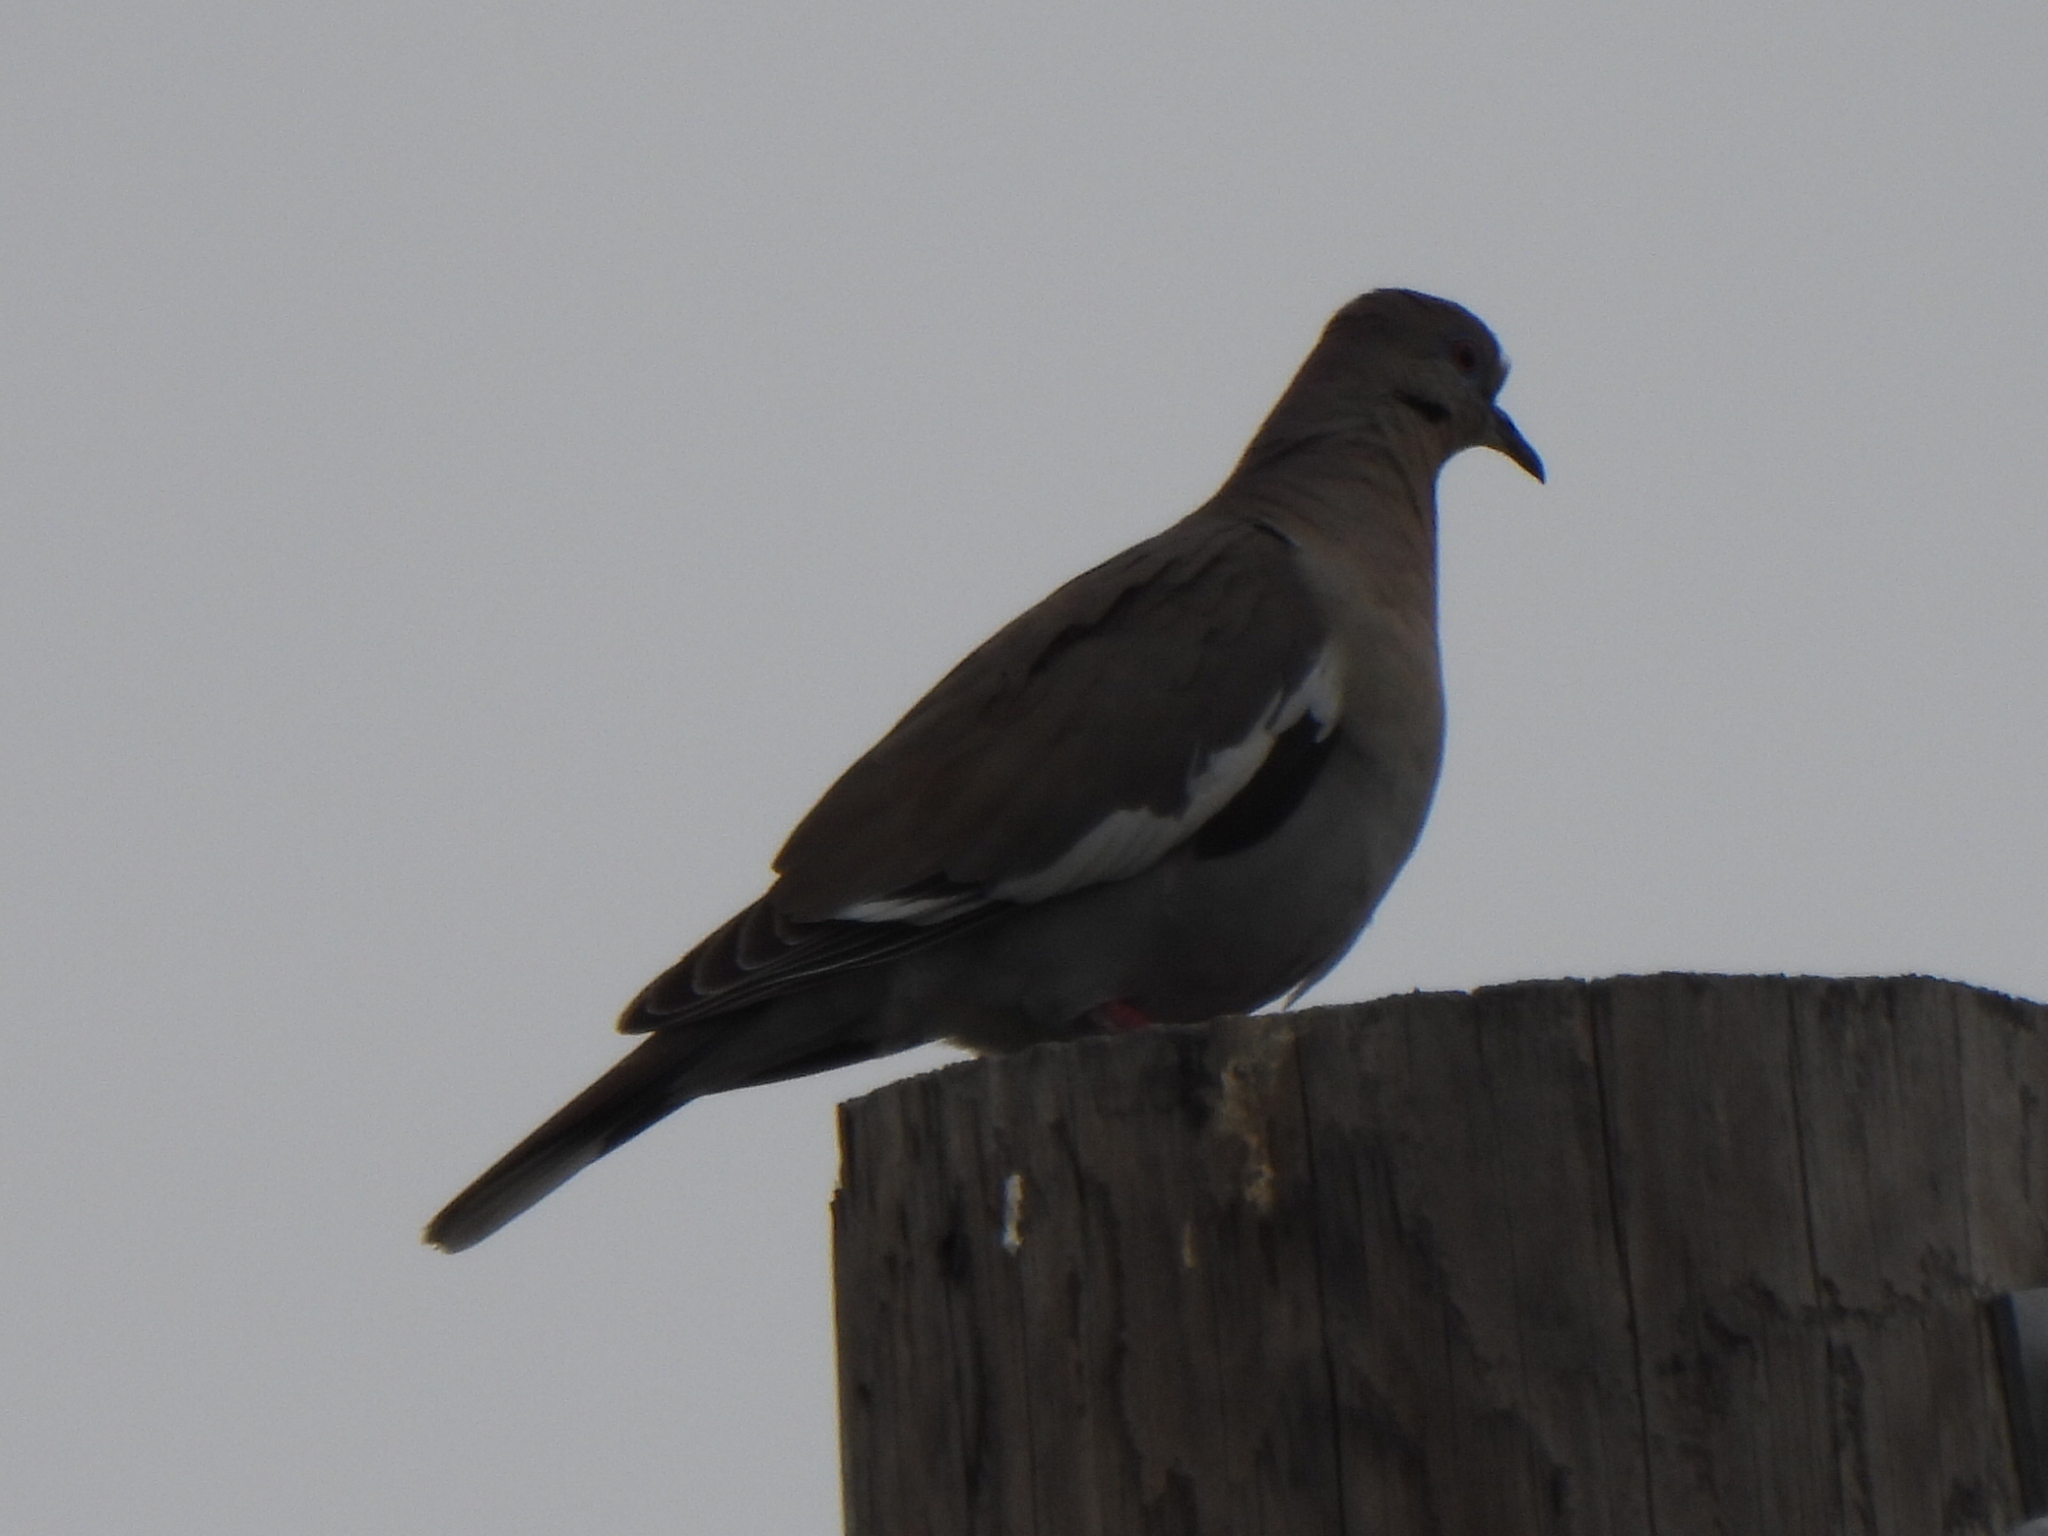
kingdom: Animalia
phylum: Chordata
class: Aves
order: Columbiformes
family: Columbidae
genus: Zenaida
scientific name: Zenaida asiatica
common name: White-winged dove
